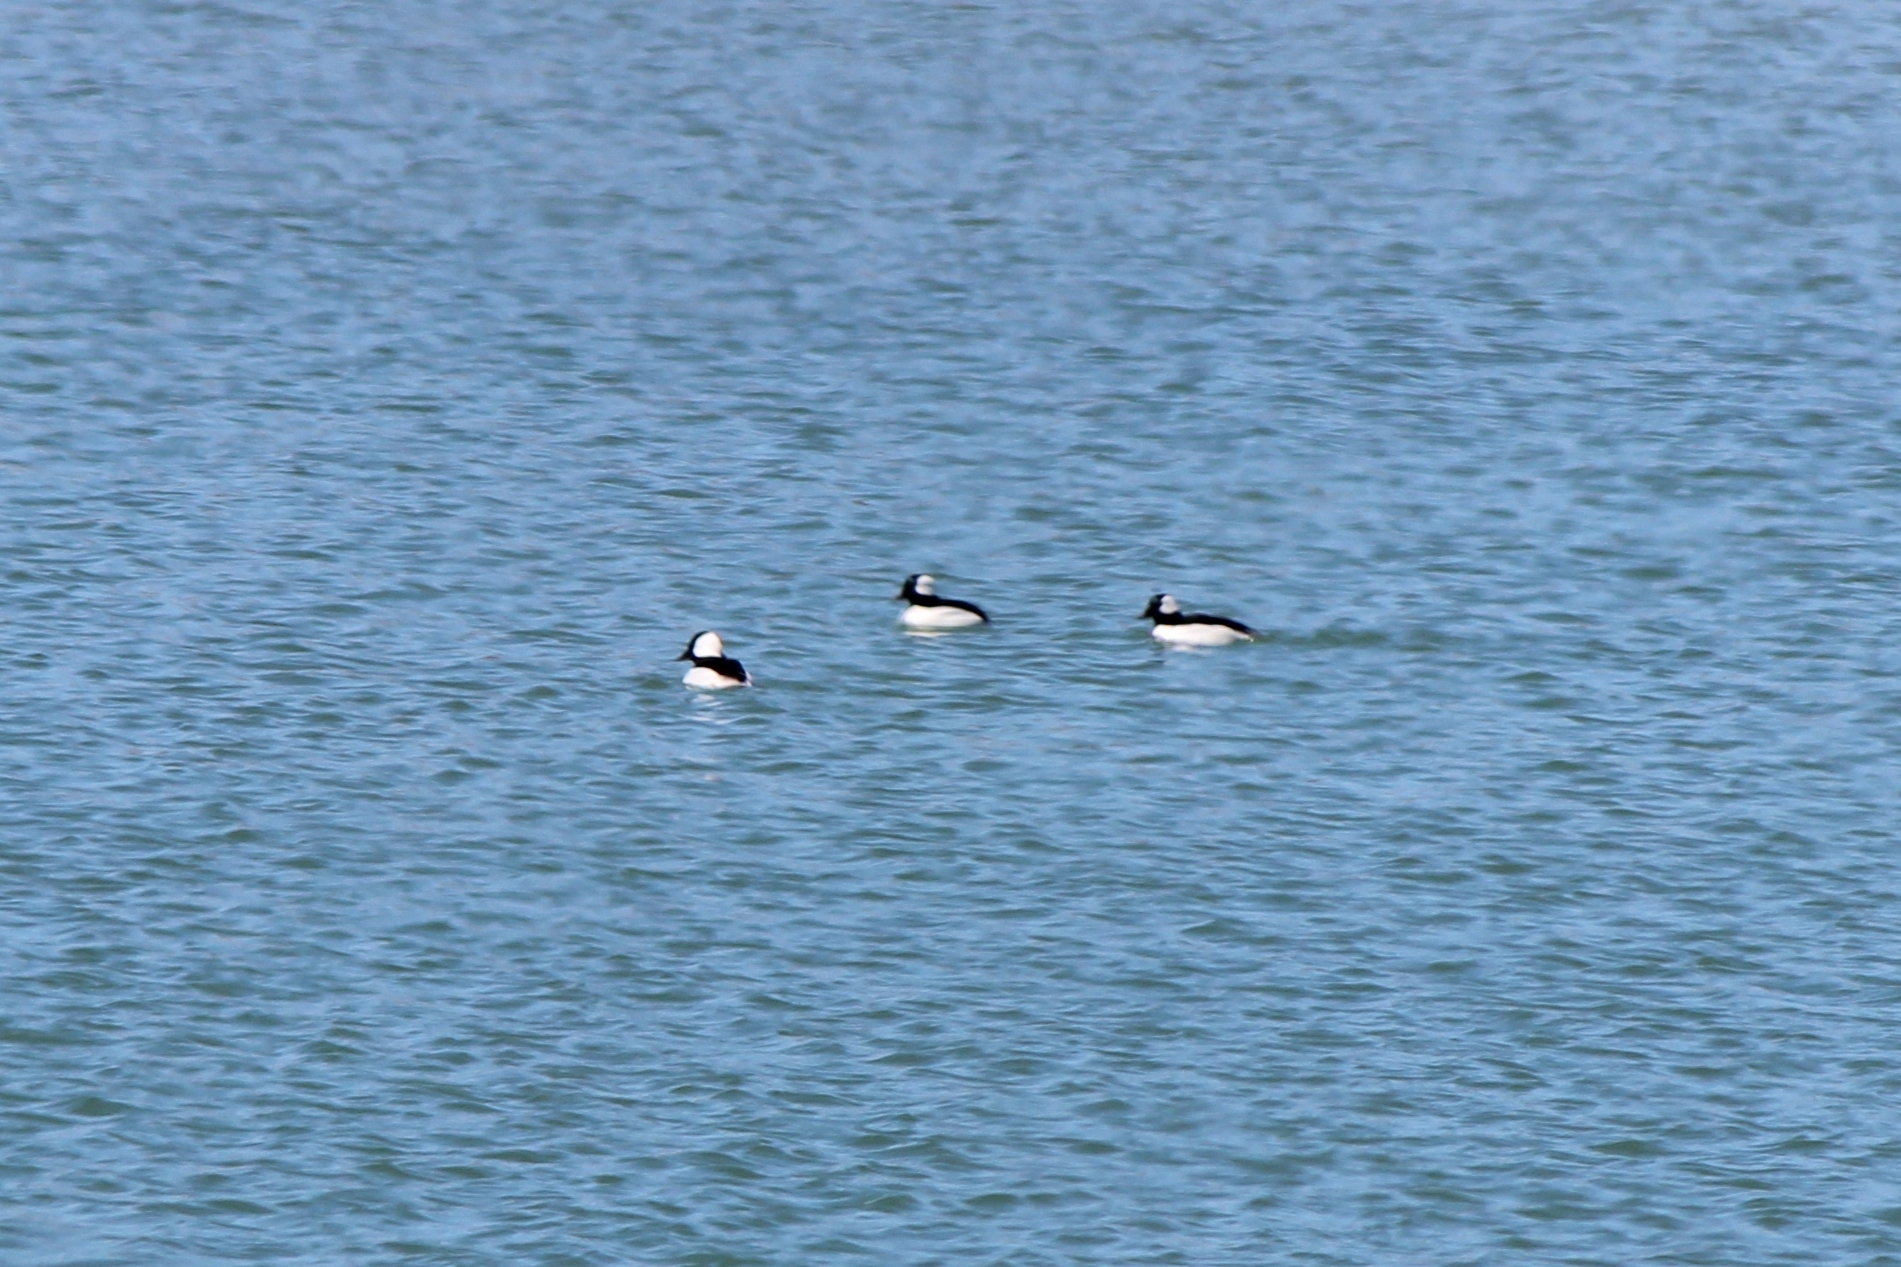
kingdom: Animalia
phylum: Chordata
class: Aves
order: Anseriformes
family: Anatidae
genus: Bucephala
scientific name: Bucephala albeola
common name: Bufflehead
